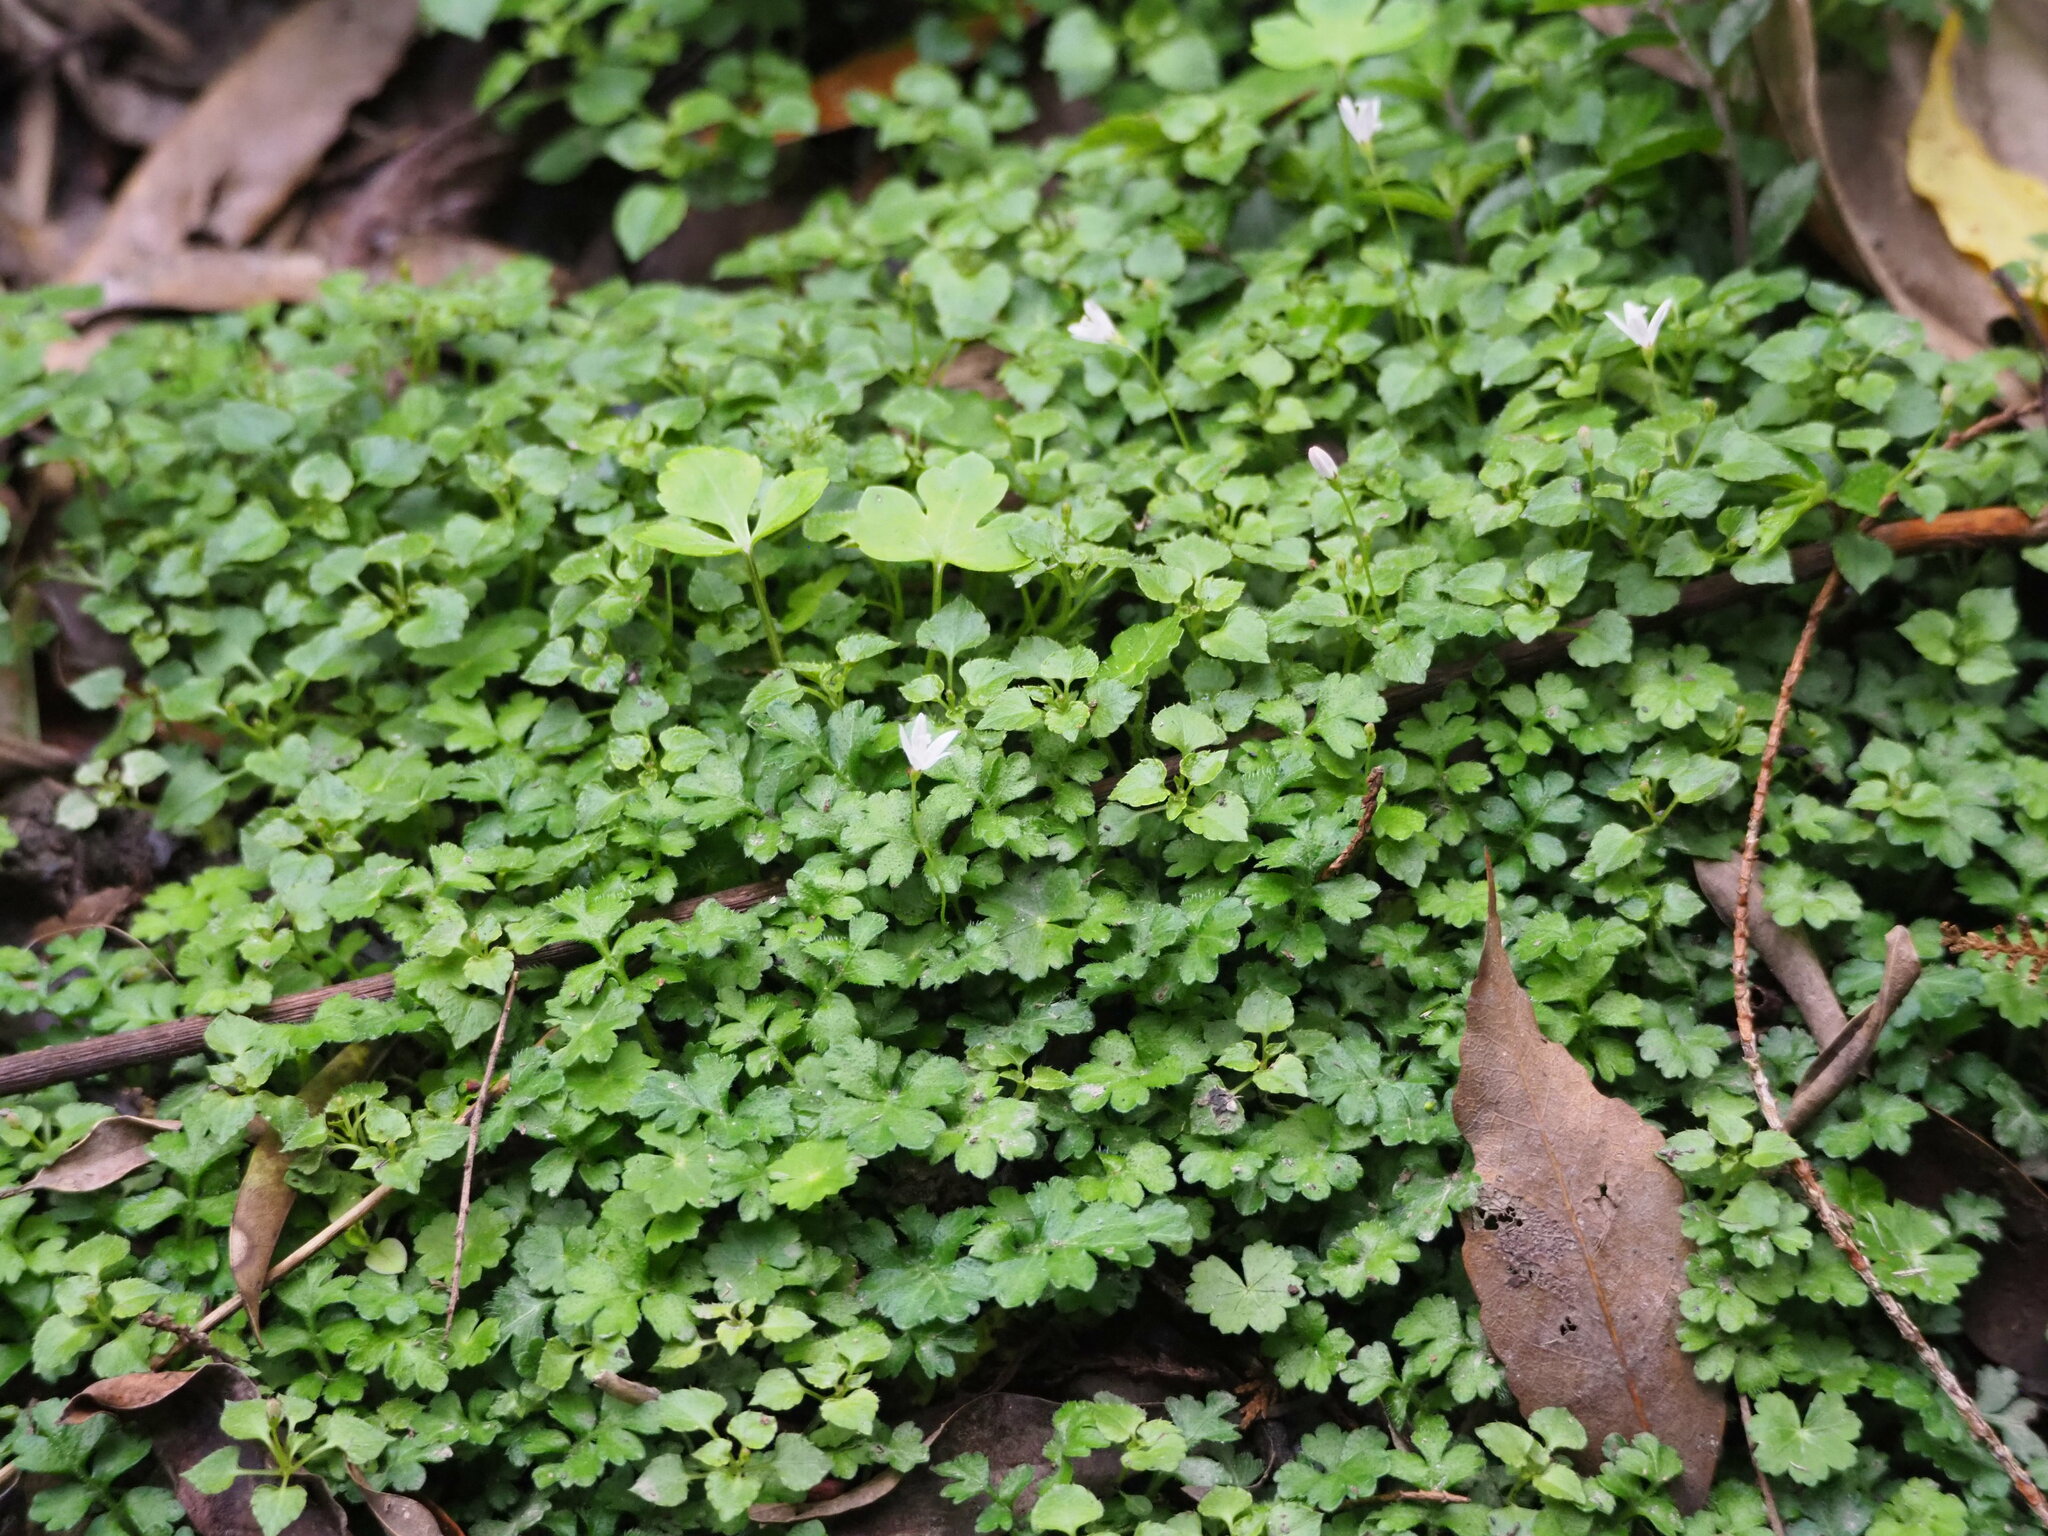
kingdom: Plantae
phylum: Tracheophyta
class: Magnoliopsida
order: Asterales
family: Campanulaceae
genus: Peracarpa
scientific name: Peracarpa carnosa
